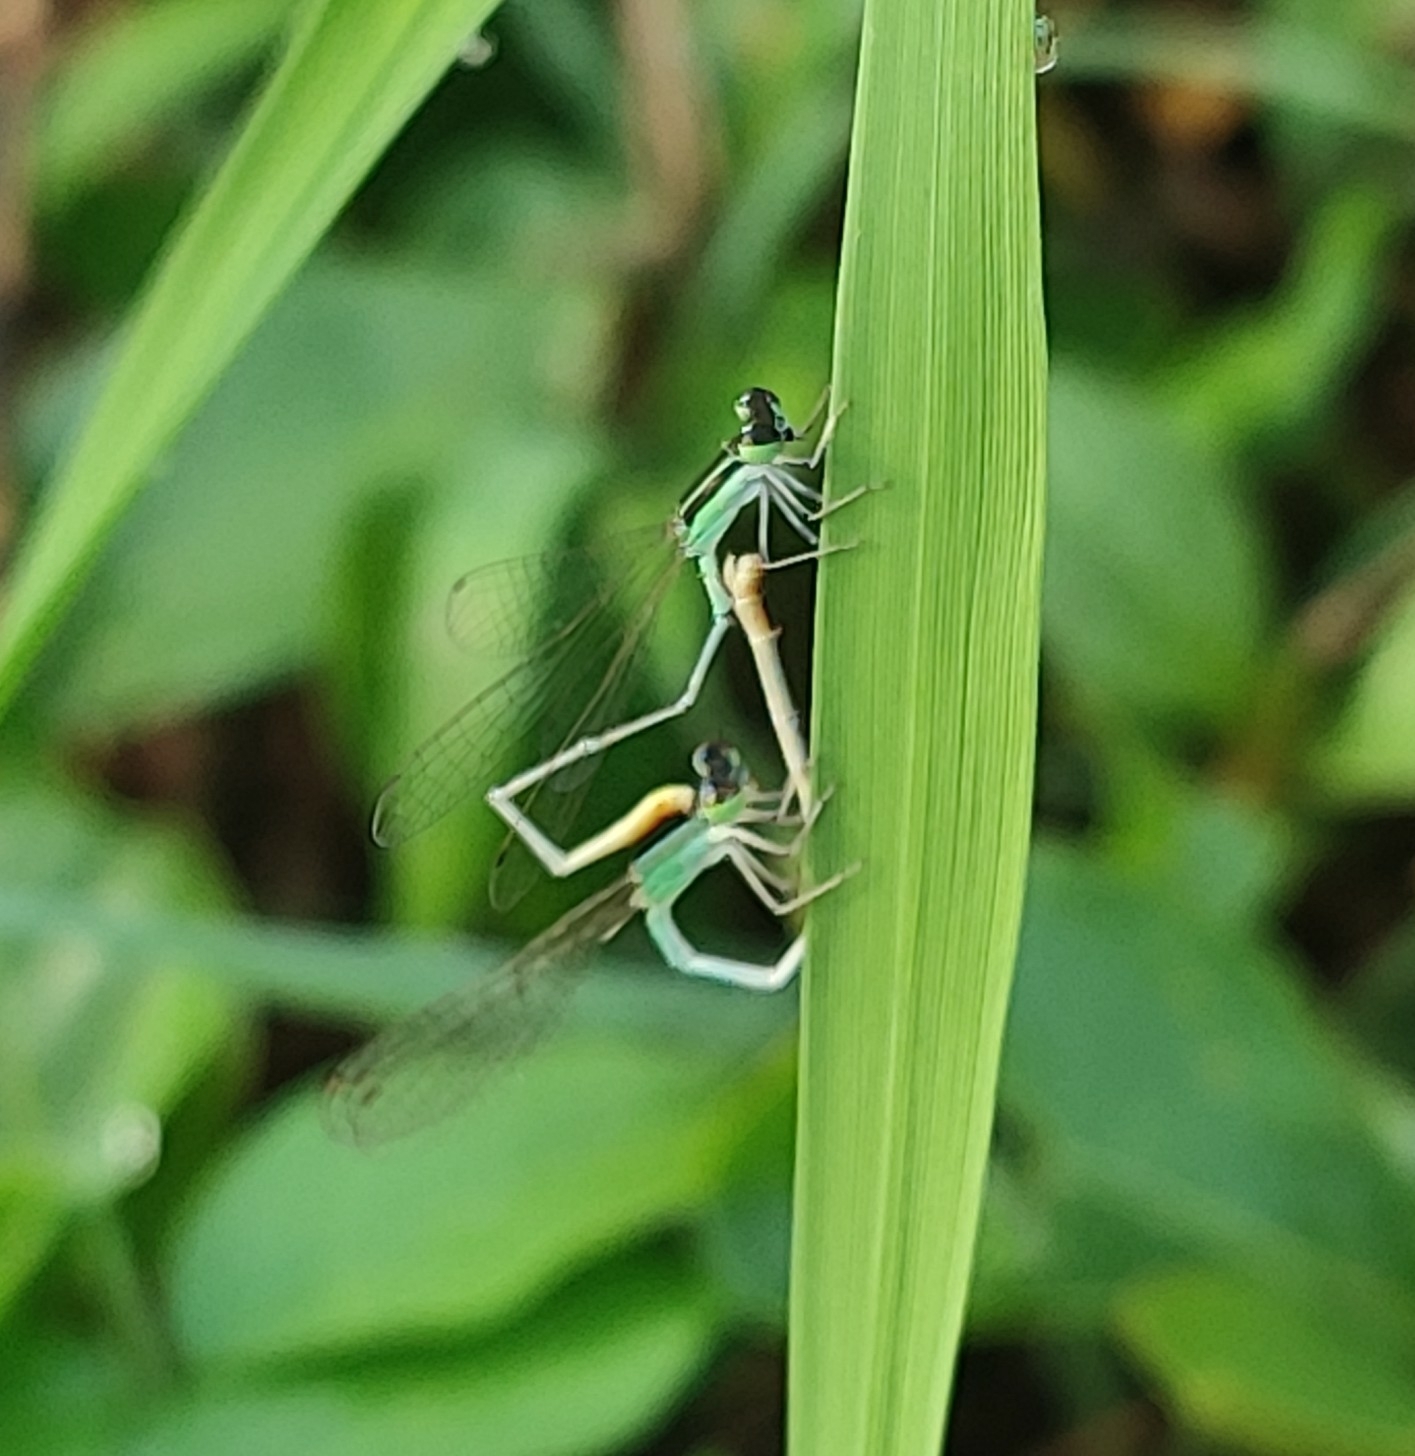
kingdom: Animalia
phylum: Arthropoda
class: Insecta
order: Odonata
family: Coenagrionidae
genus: Agriocnemis
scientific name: Agriocnemis pygmaea
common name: Pygmy wisp
